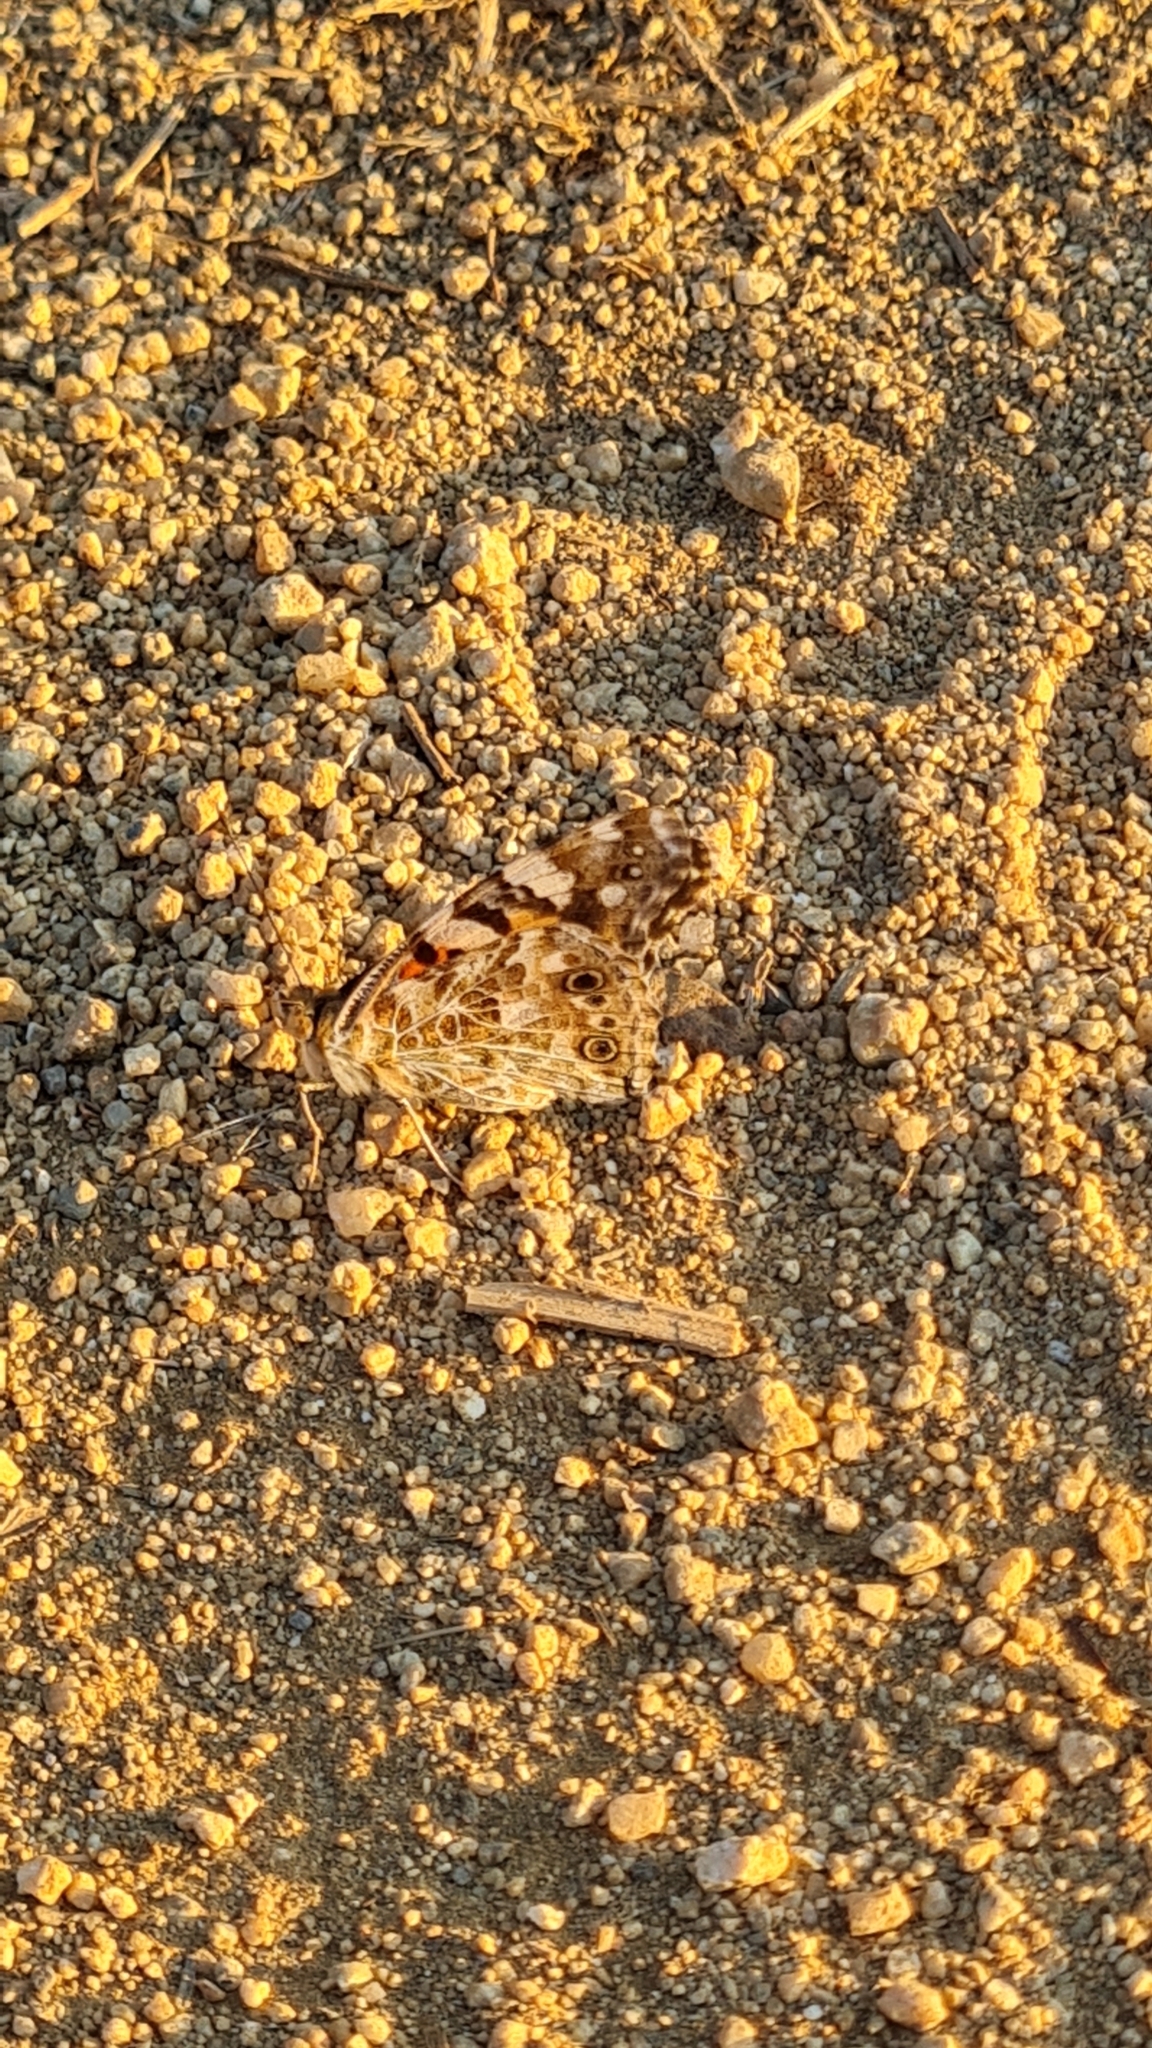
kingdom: Animalia
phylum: Arthropoda
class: Insecta
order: Lepidoptera
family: Nymphalidae
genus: Vanessa
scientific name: Vanessa cardui
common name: Painted lady
